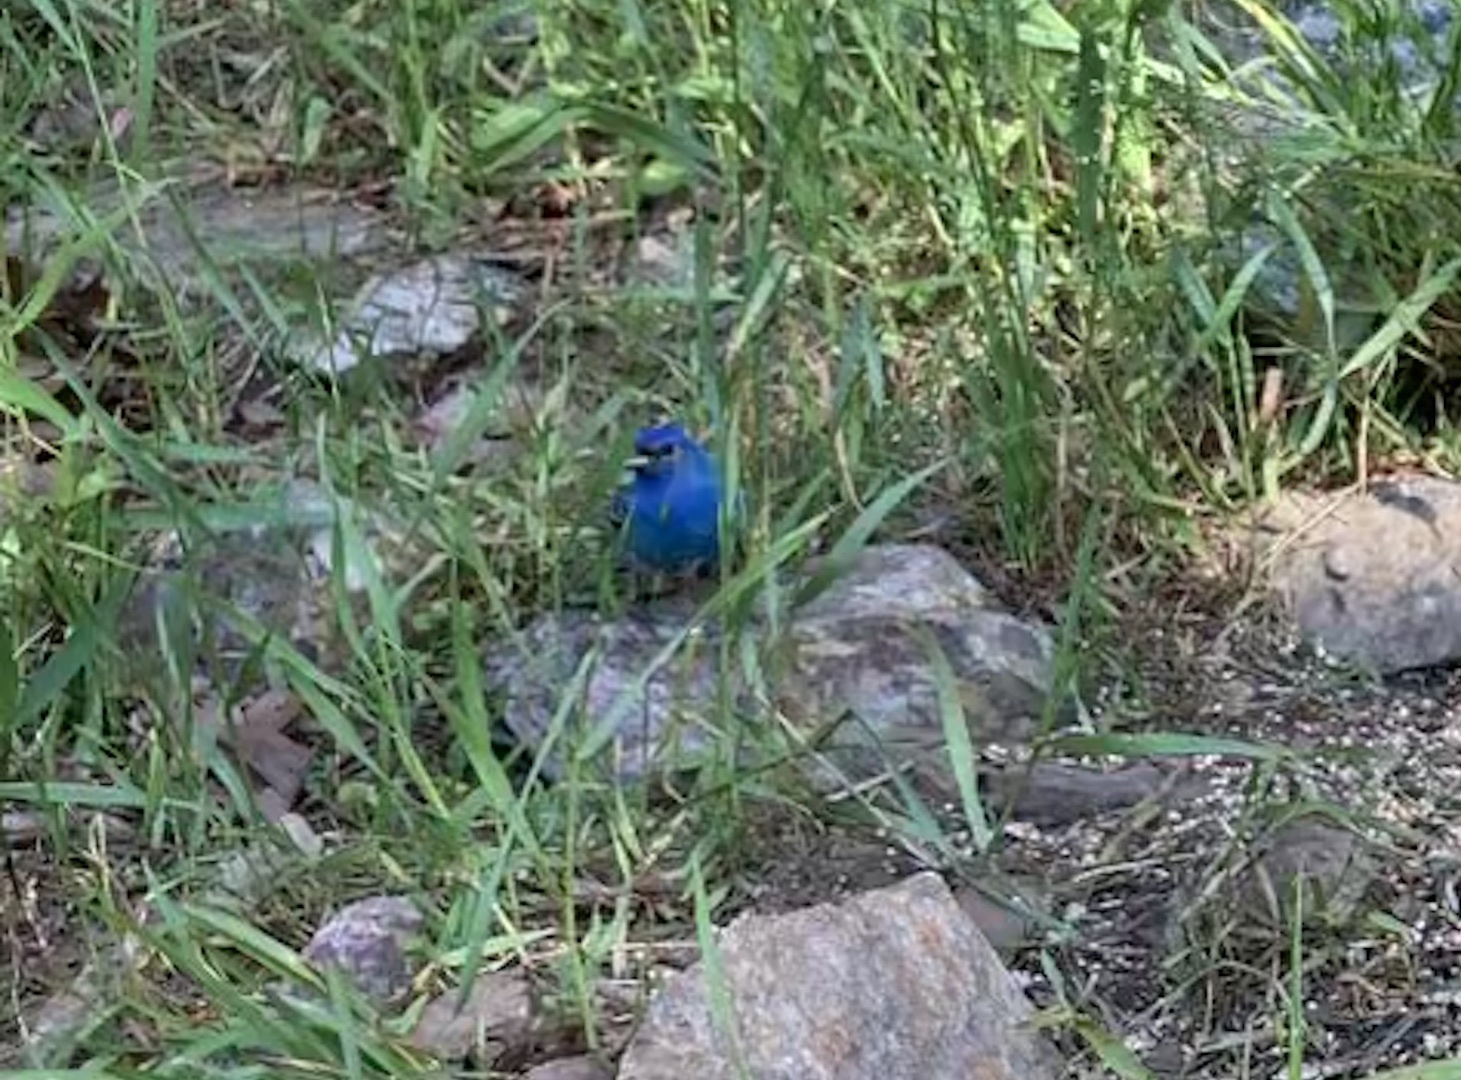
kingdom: Animalia
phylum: Chordata
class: Aves
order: Passeriformes
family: Cardinalidae
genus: Passerina
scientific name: Passerina cyanea
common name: Indigo bunting
